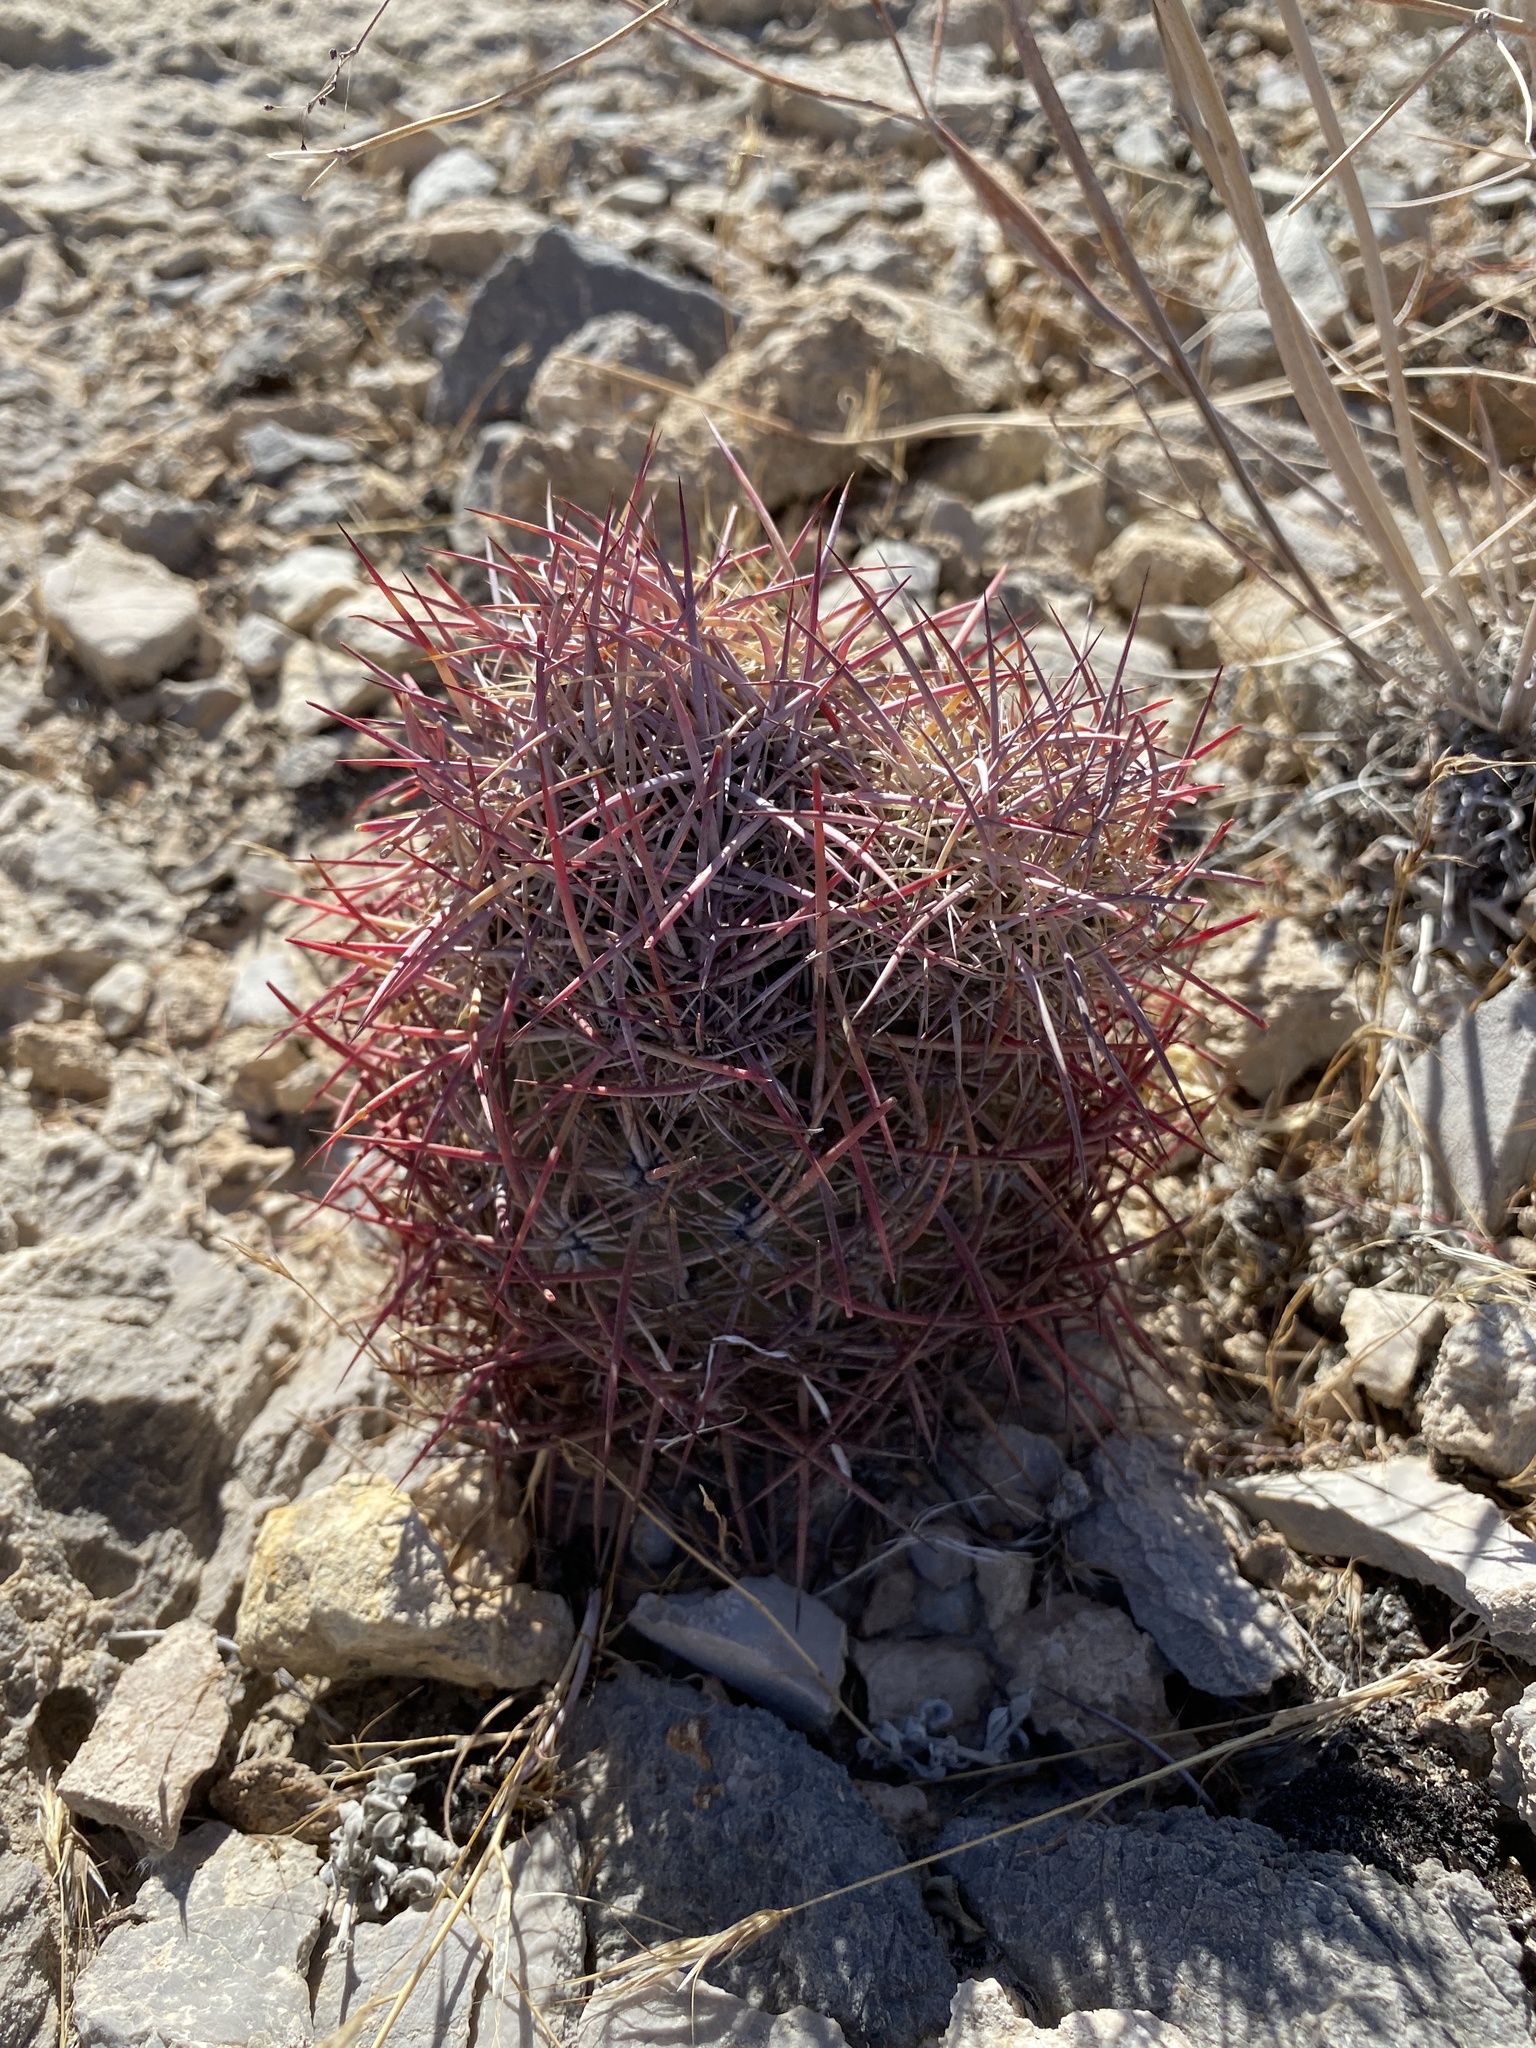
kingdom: Plantae
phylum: Tracheophyta
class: Magnoliopsida
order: Caryophyllales
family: Cactaceae
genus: Sclerocactus
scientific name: Sclerocactus johnsonii
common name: Eight-spine fishhook cactus
